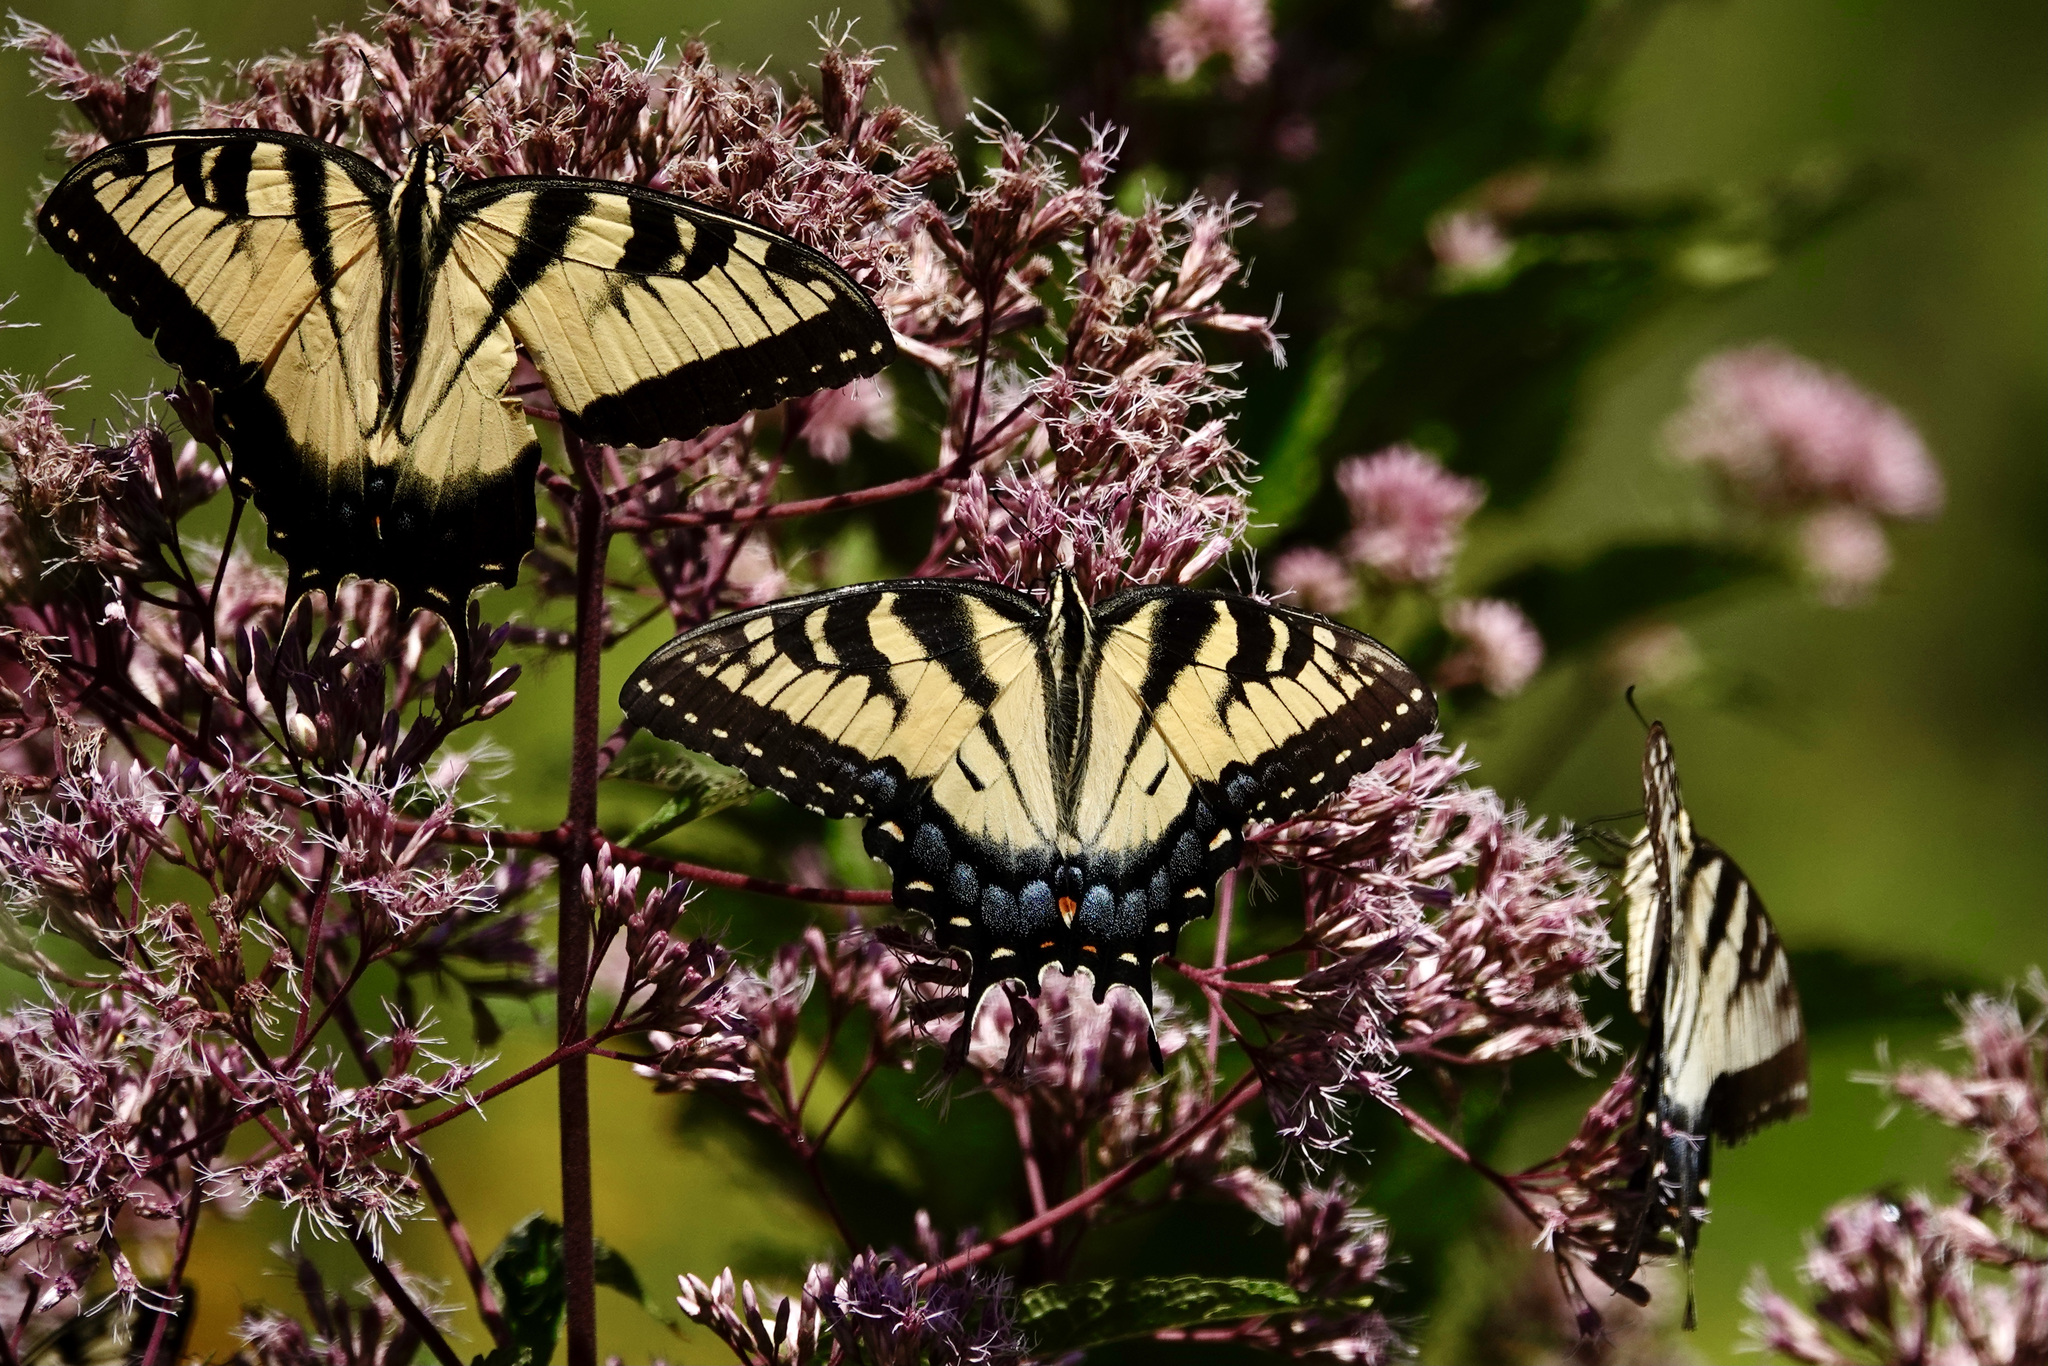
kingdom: Animalia
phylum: Arthropoda
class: Insecta
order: Lepidoptera
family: Papilionidae
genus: Papilio
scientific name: Papilio glaucus
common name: Tiger swallowtail
